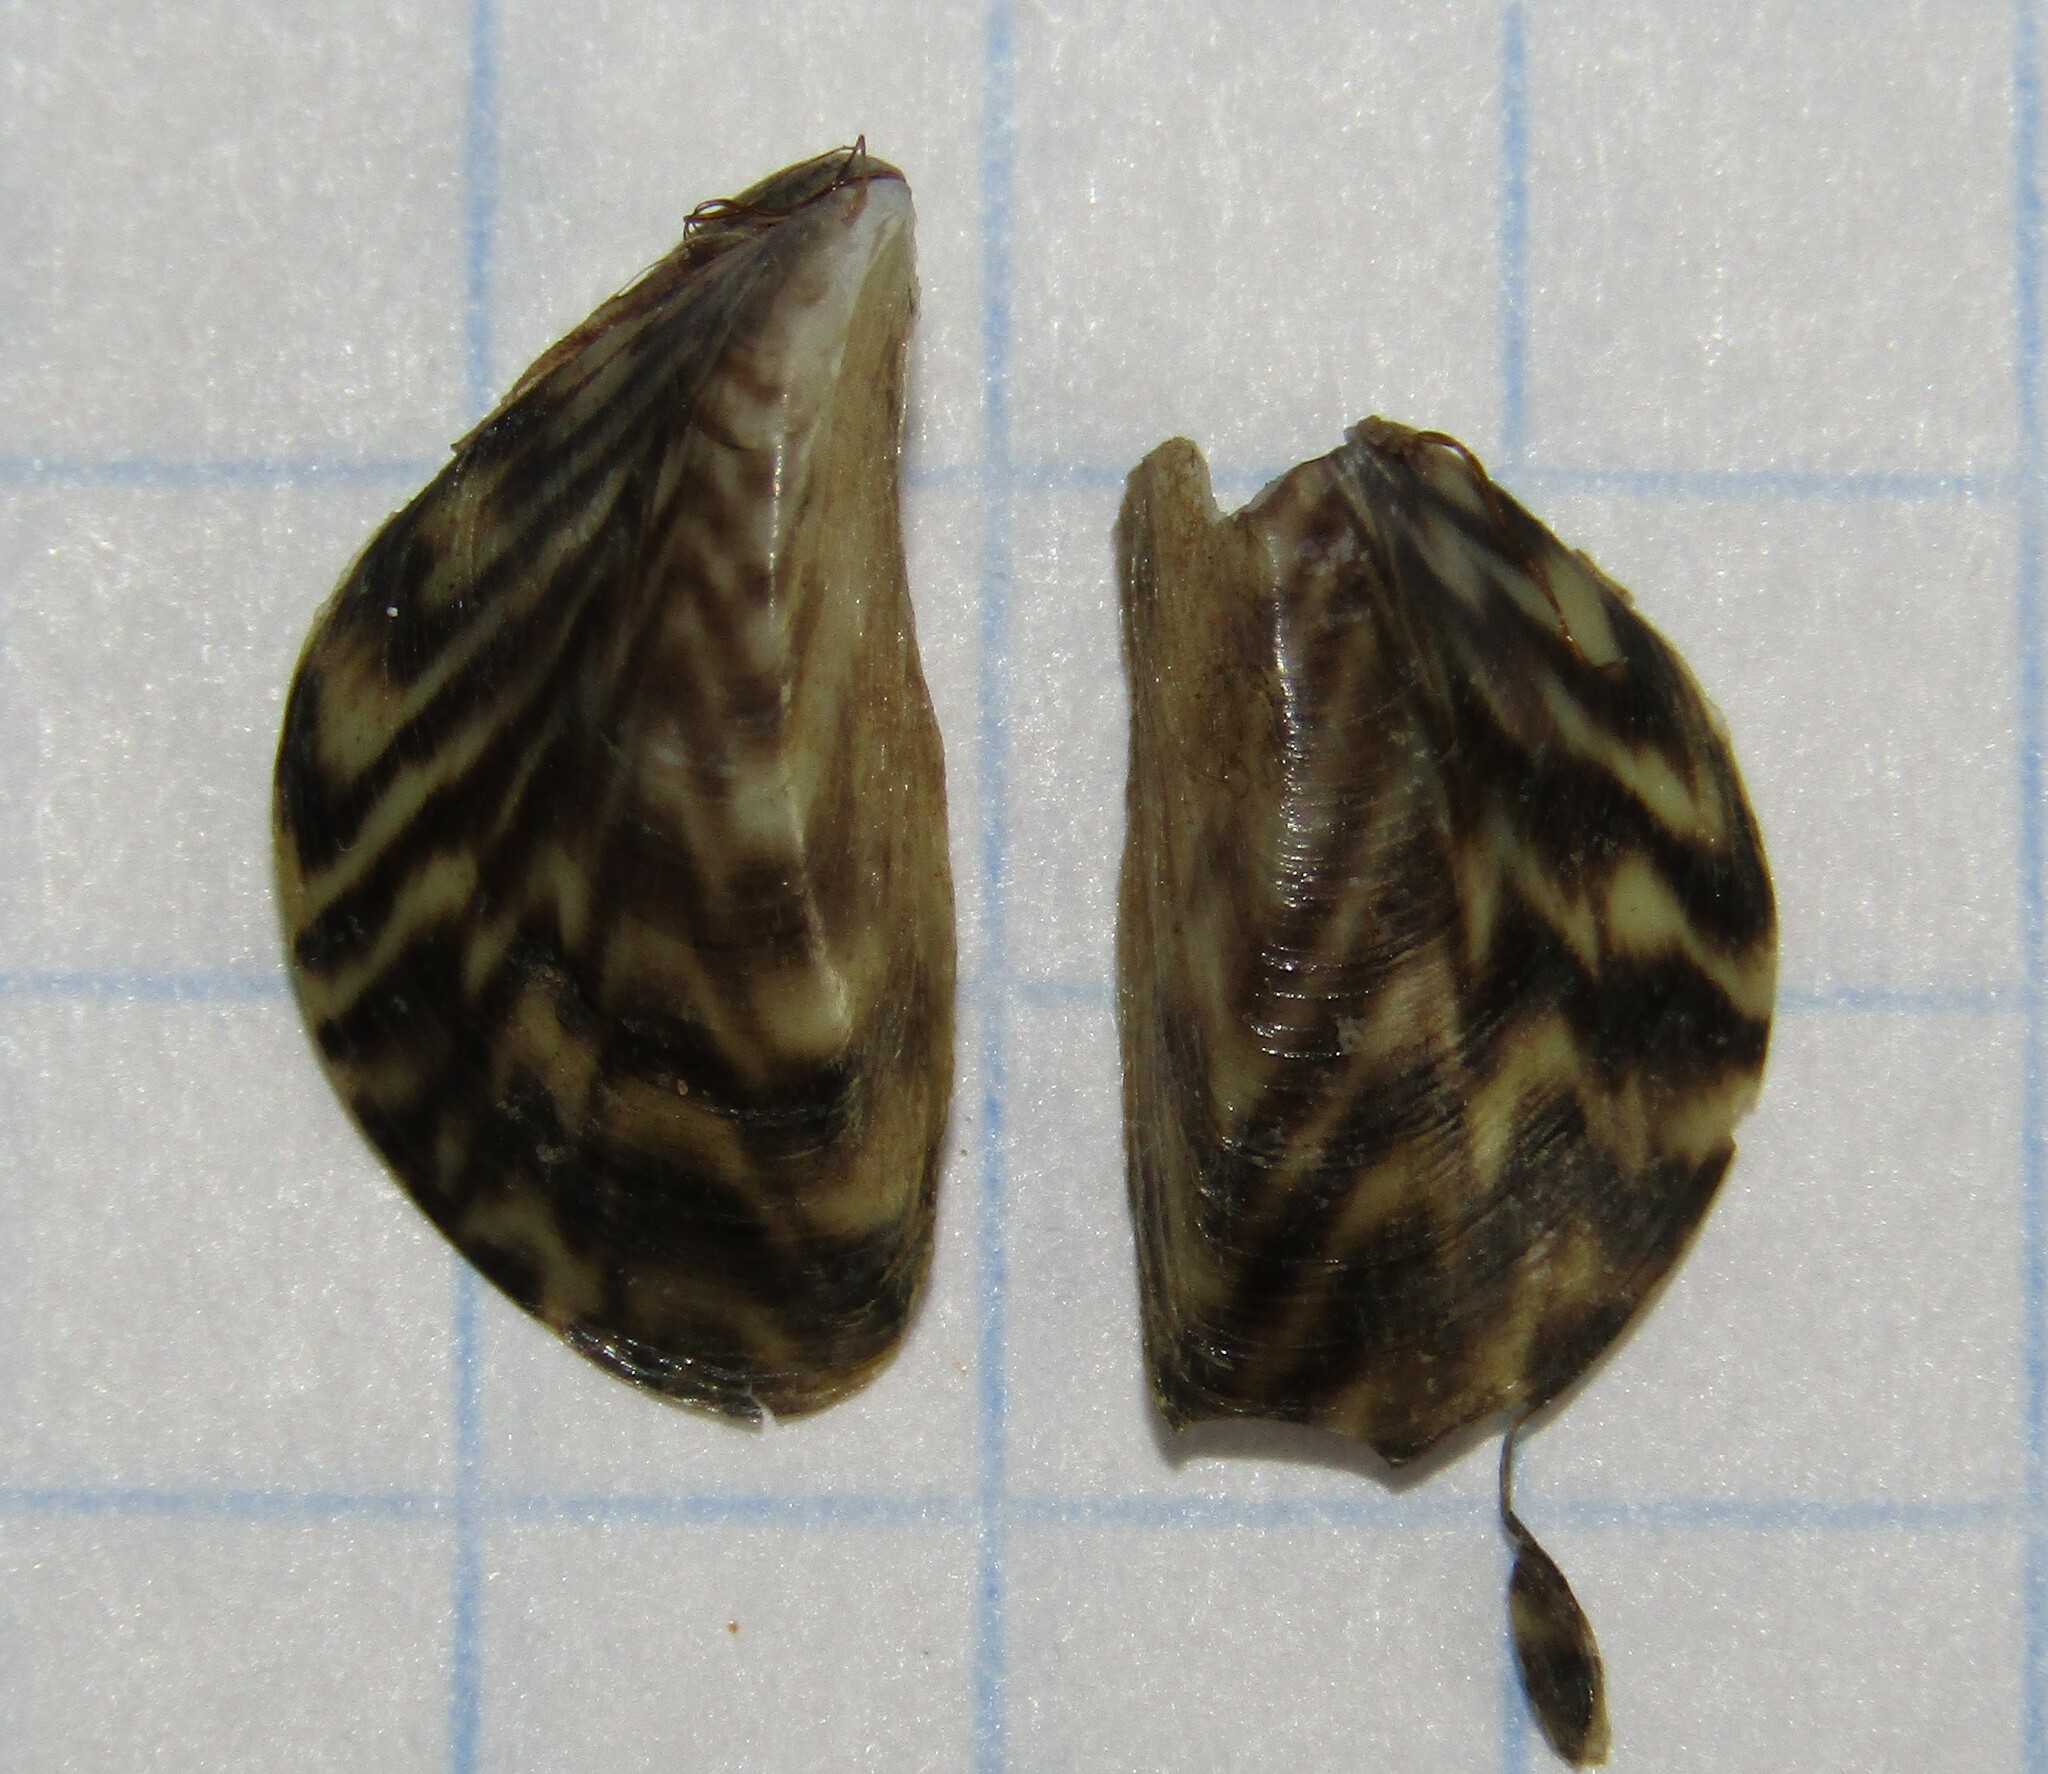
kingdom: Animalia
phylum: Mollusca
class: Bivalvia
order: Myida
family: Dreissenidae
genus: Dreissena
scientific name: Dreissena polymorpha
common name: Zebra mussel
